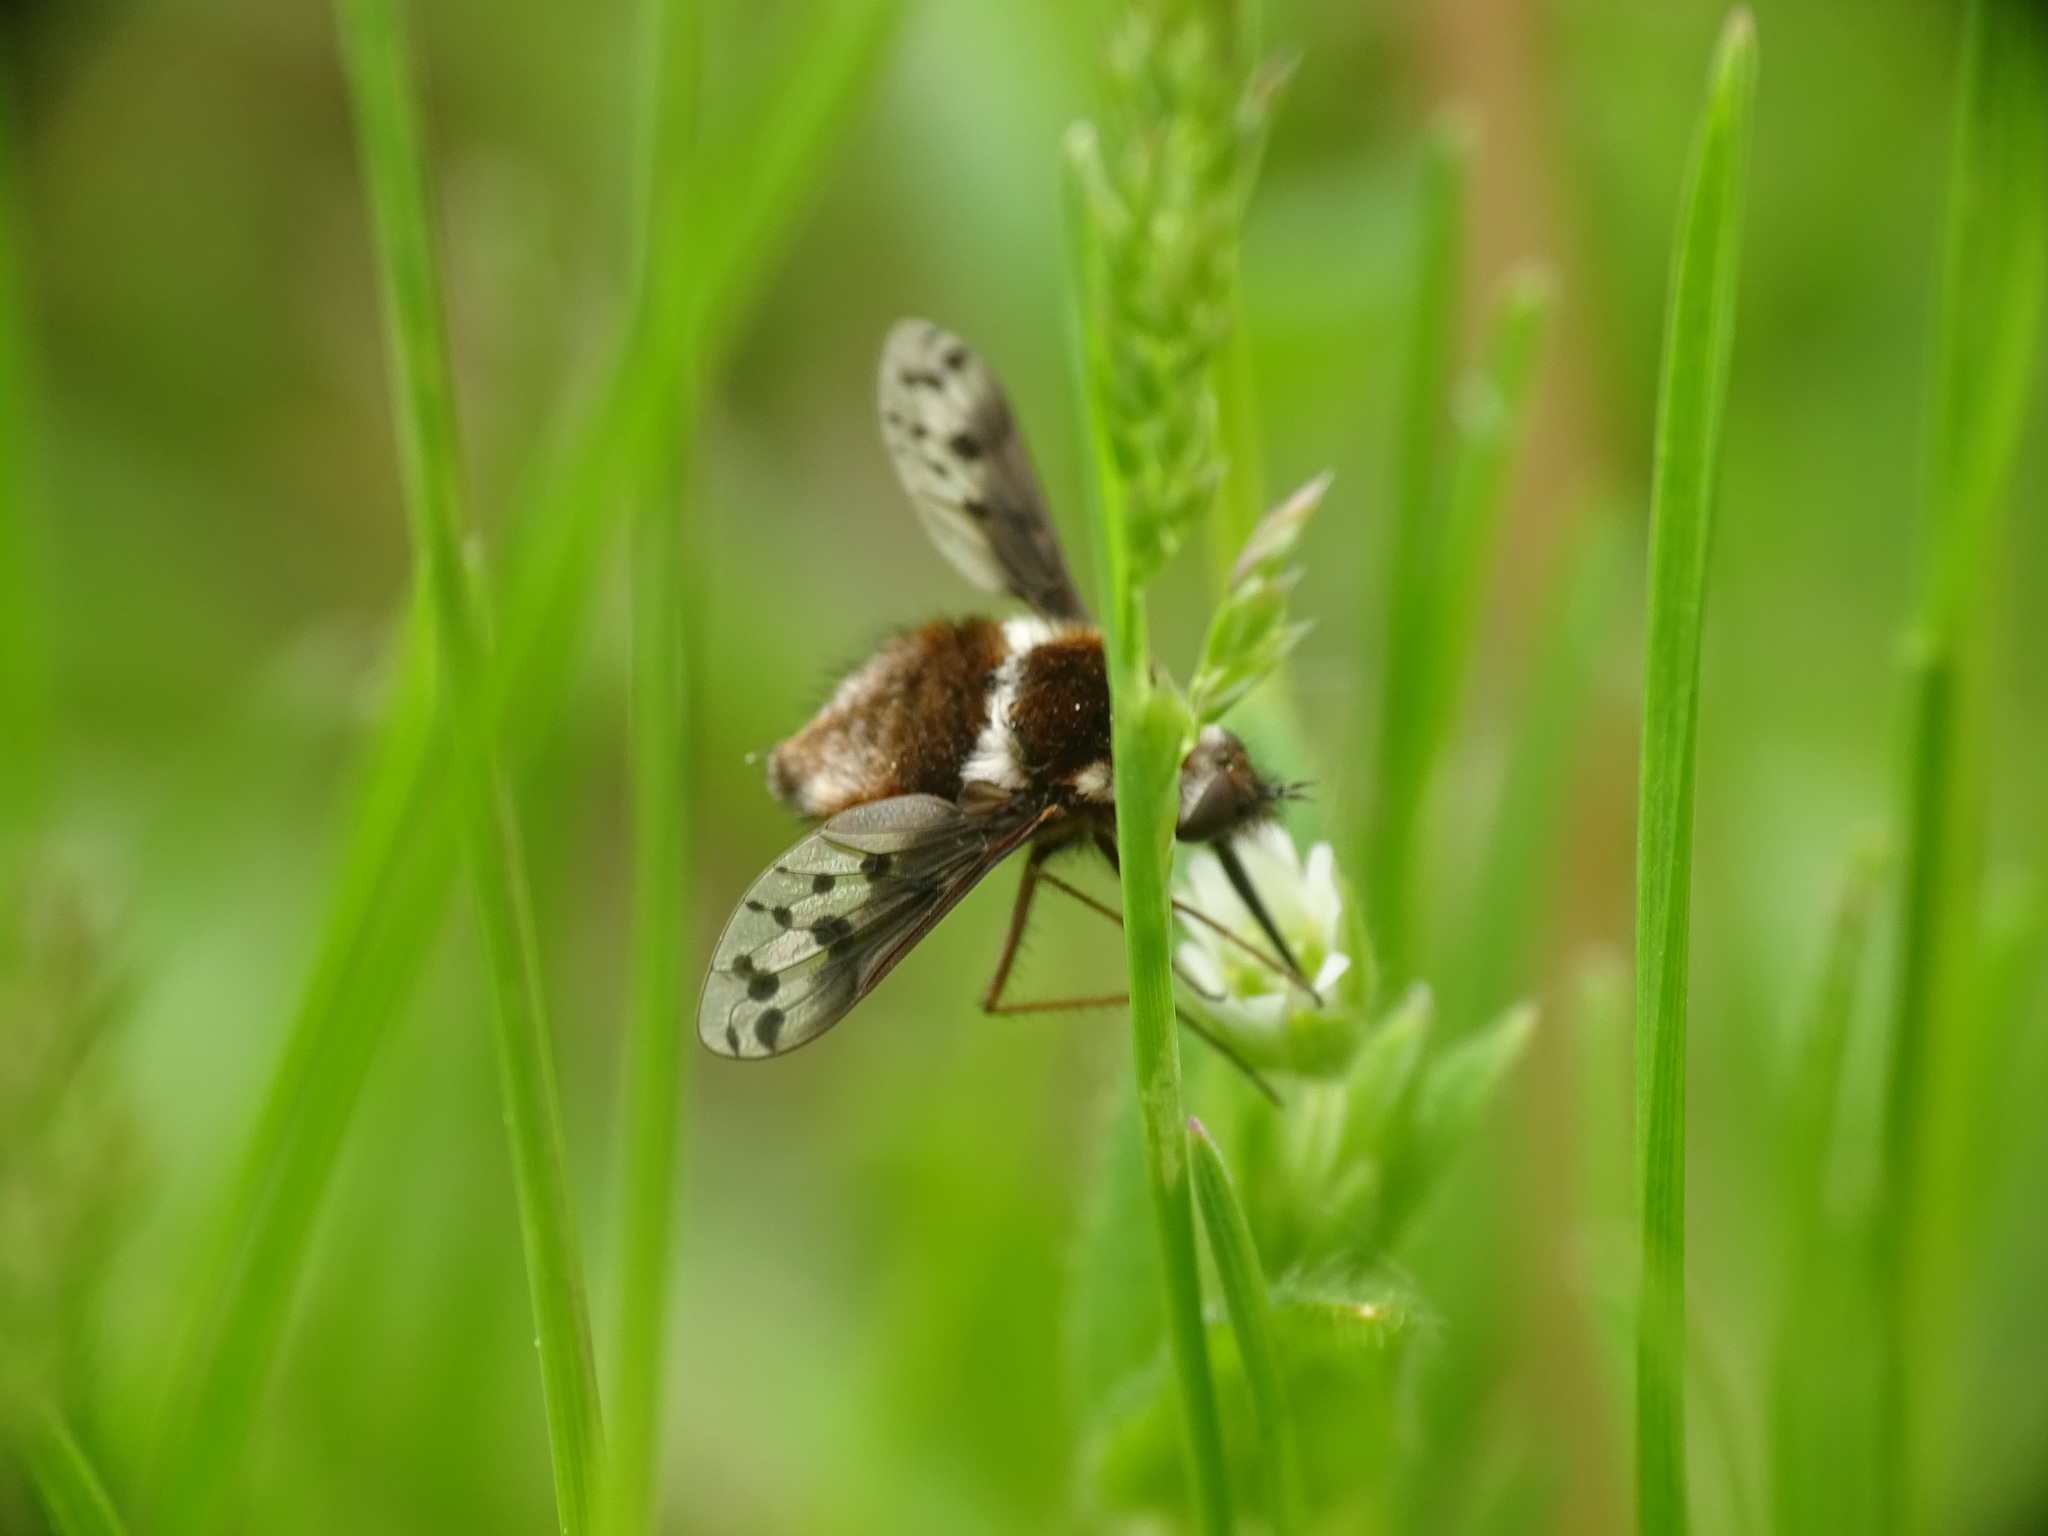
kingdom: Animalia
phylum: Arthropoda
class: Insecta
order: Diptera
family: Bombyliidae
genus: Bombylius
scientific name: Bombylius pygmaeus
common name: Pygmy bee fly
